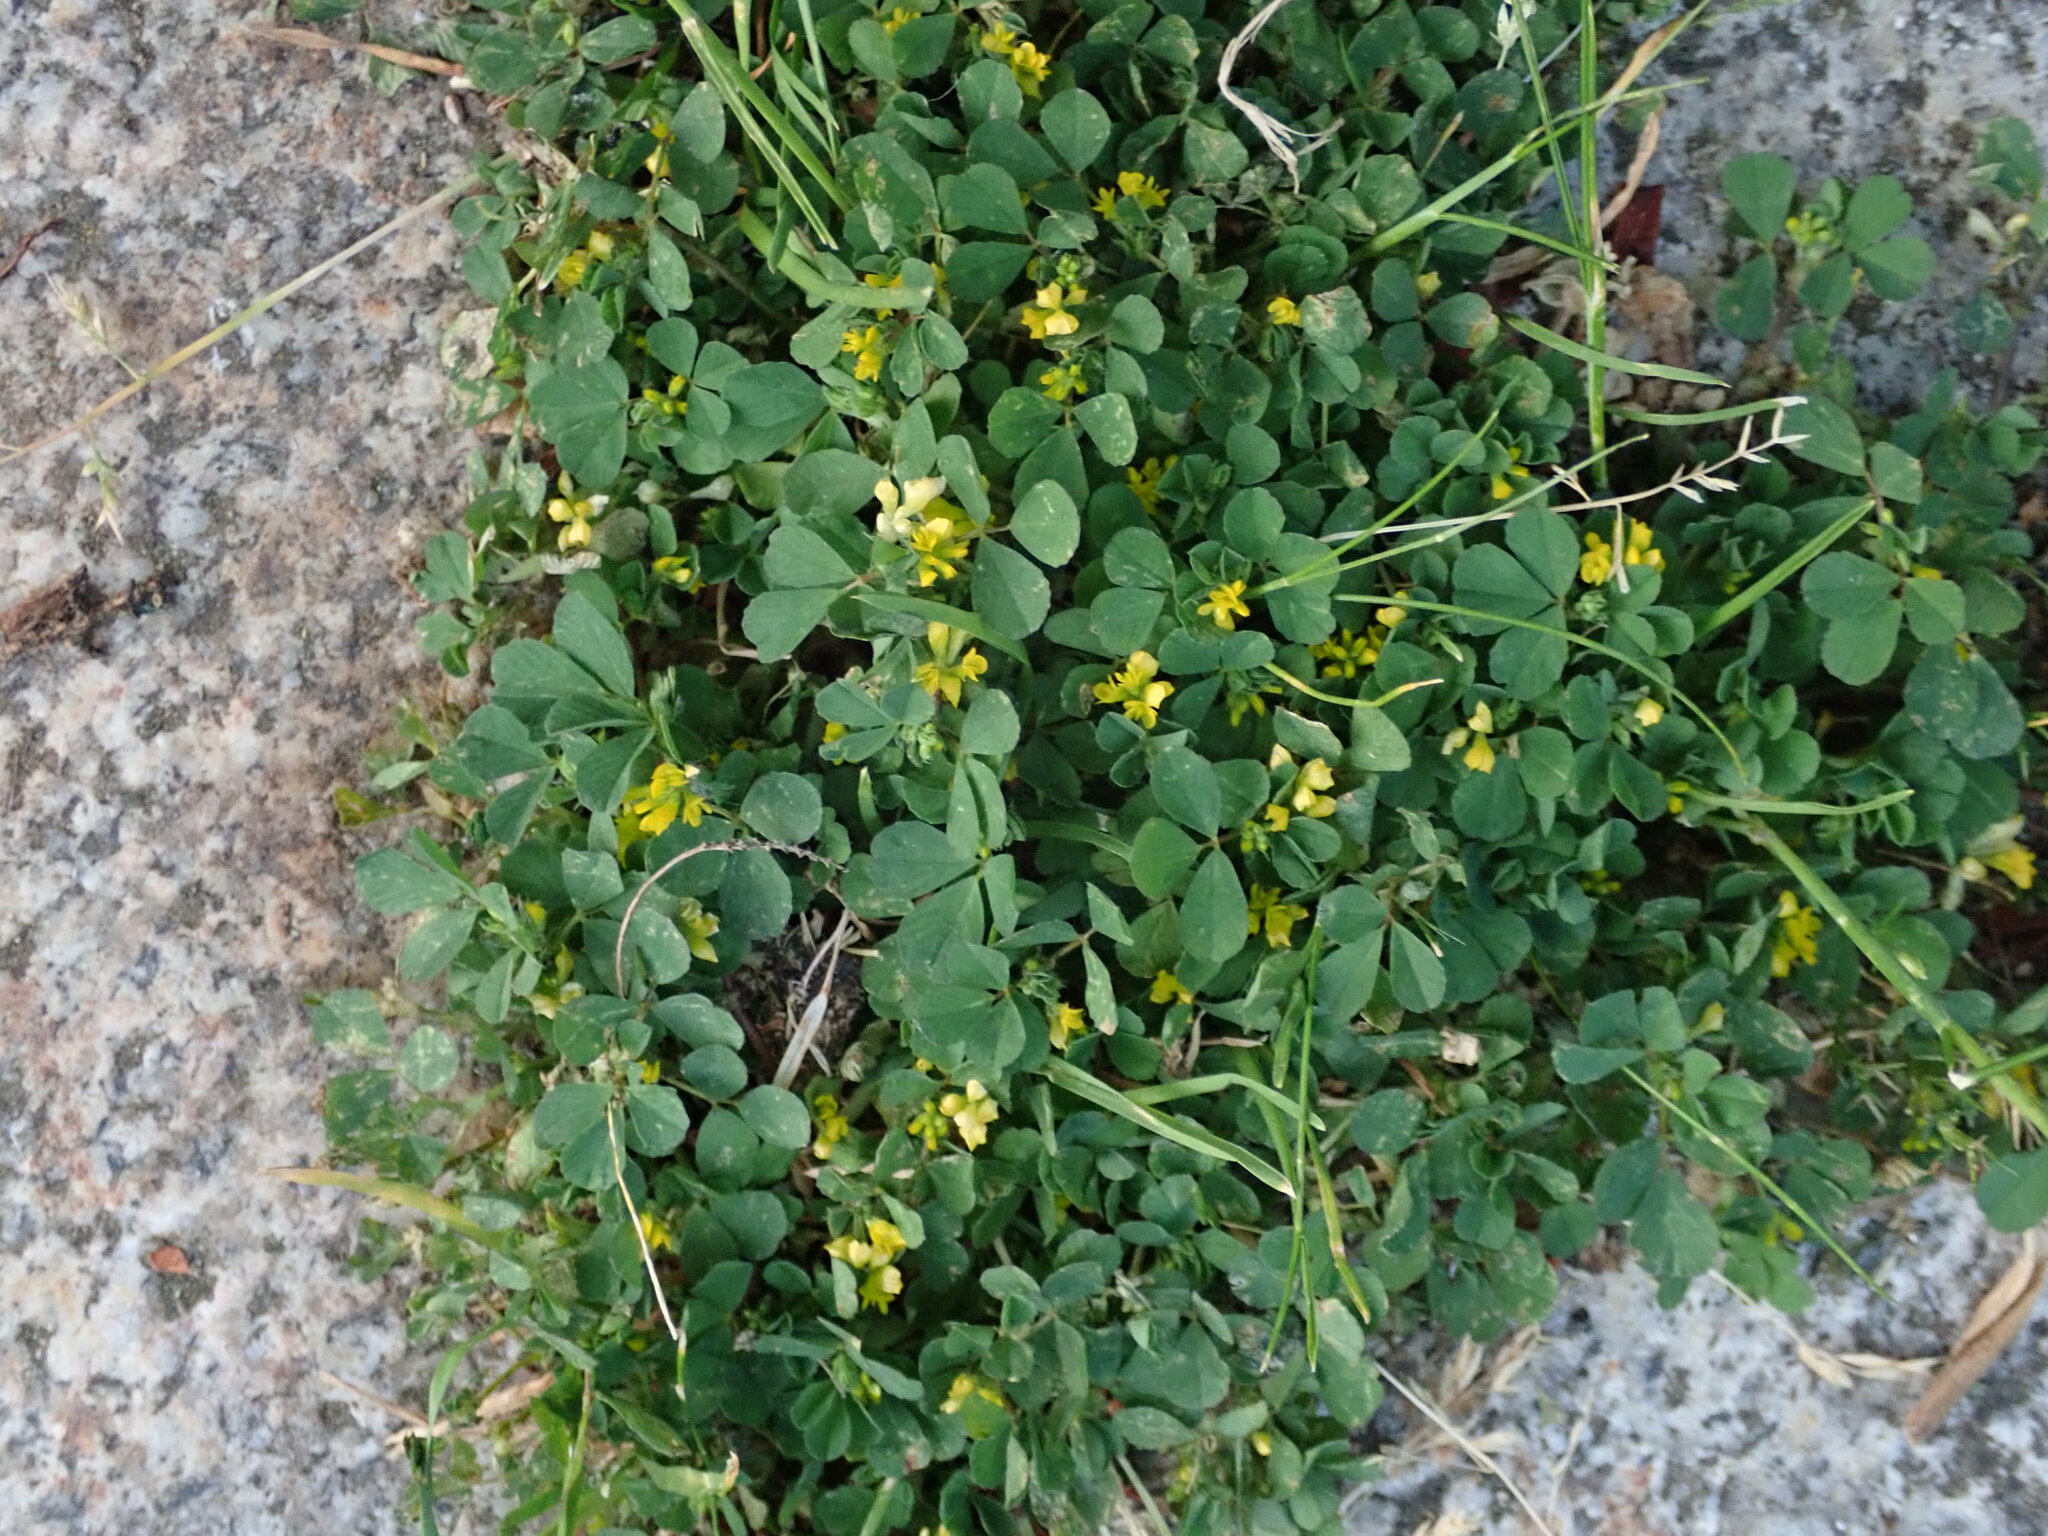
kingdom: Plantae
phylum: Tracheophyta
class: Magnoliopsida
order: Fabales
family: Fabaceae
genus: Trifolium
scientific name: Trifolium dubium
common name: Suckling clover
